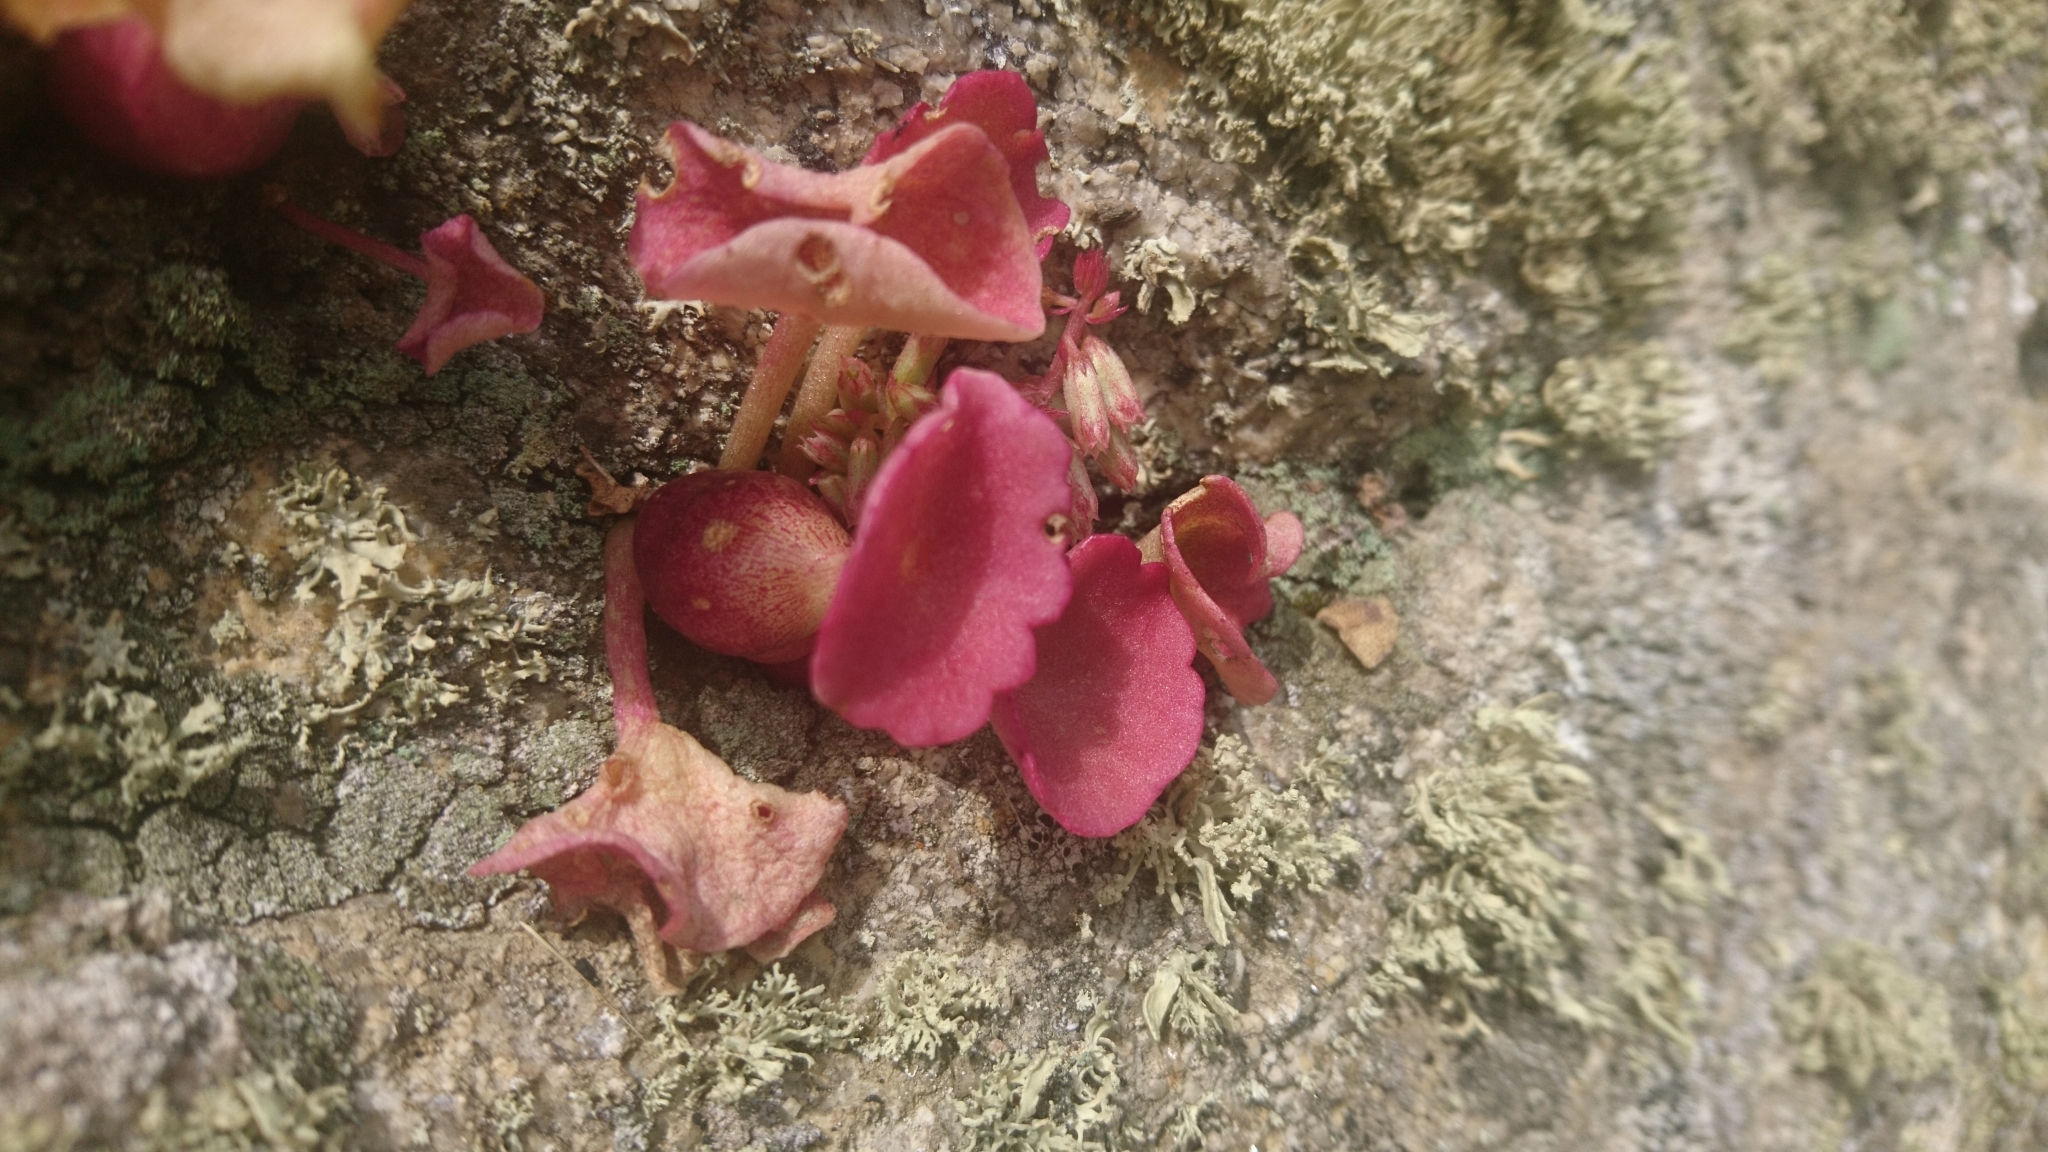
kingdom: Plantae
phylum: Tracheophyta
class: Magnoliopsida
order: Saxifragales
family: Crassulaceae
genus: Umbilicus
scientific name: Umbilicus rupestris
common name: Navelwort
